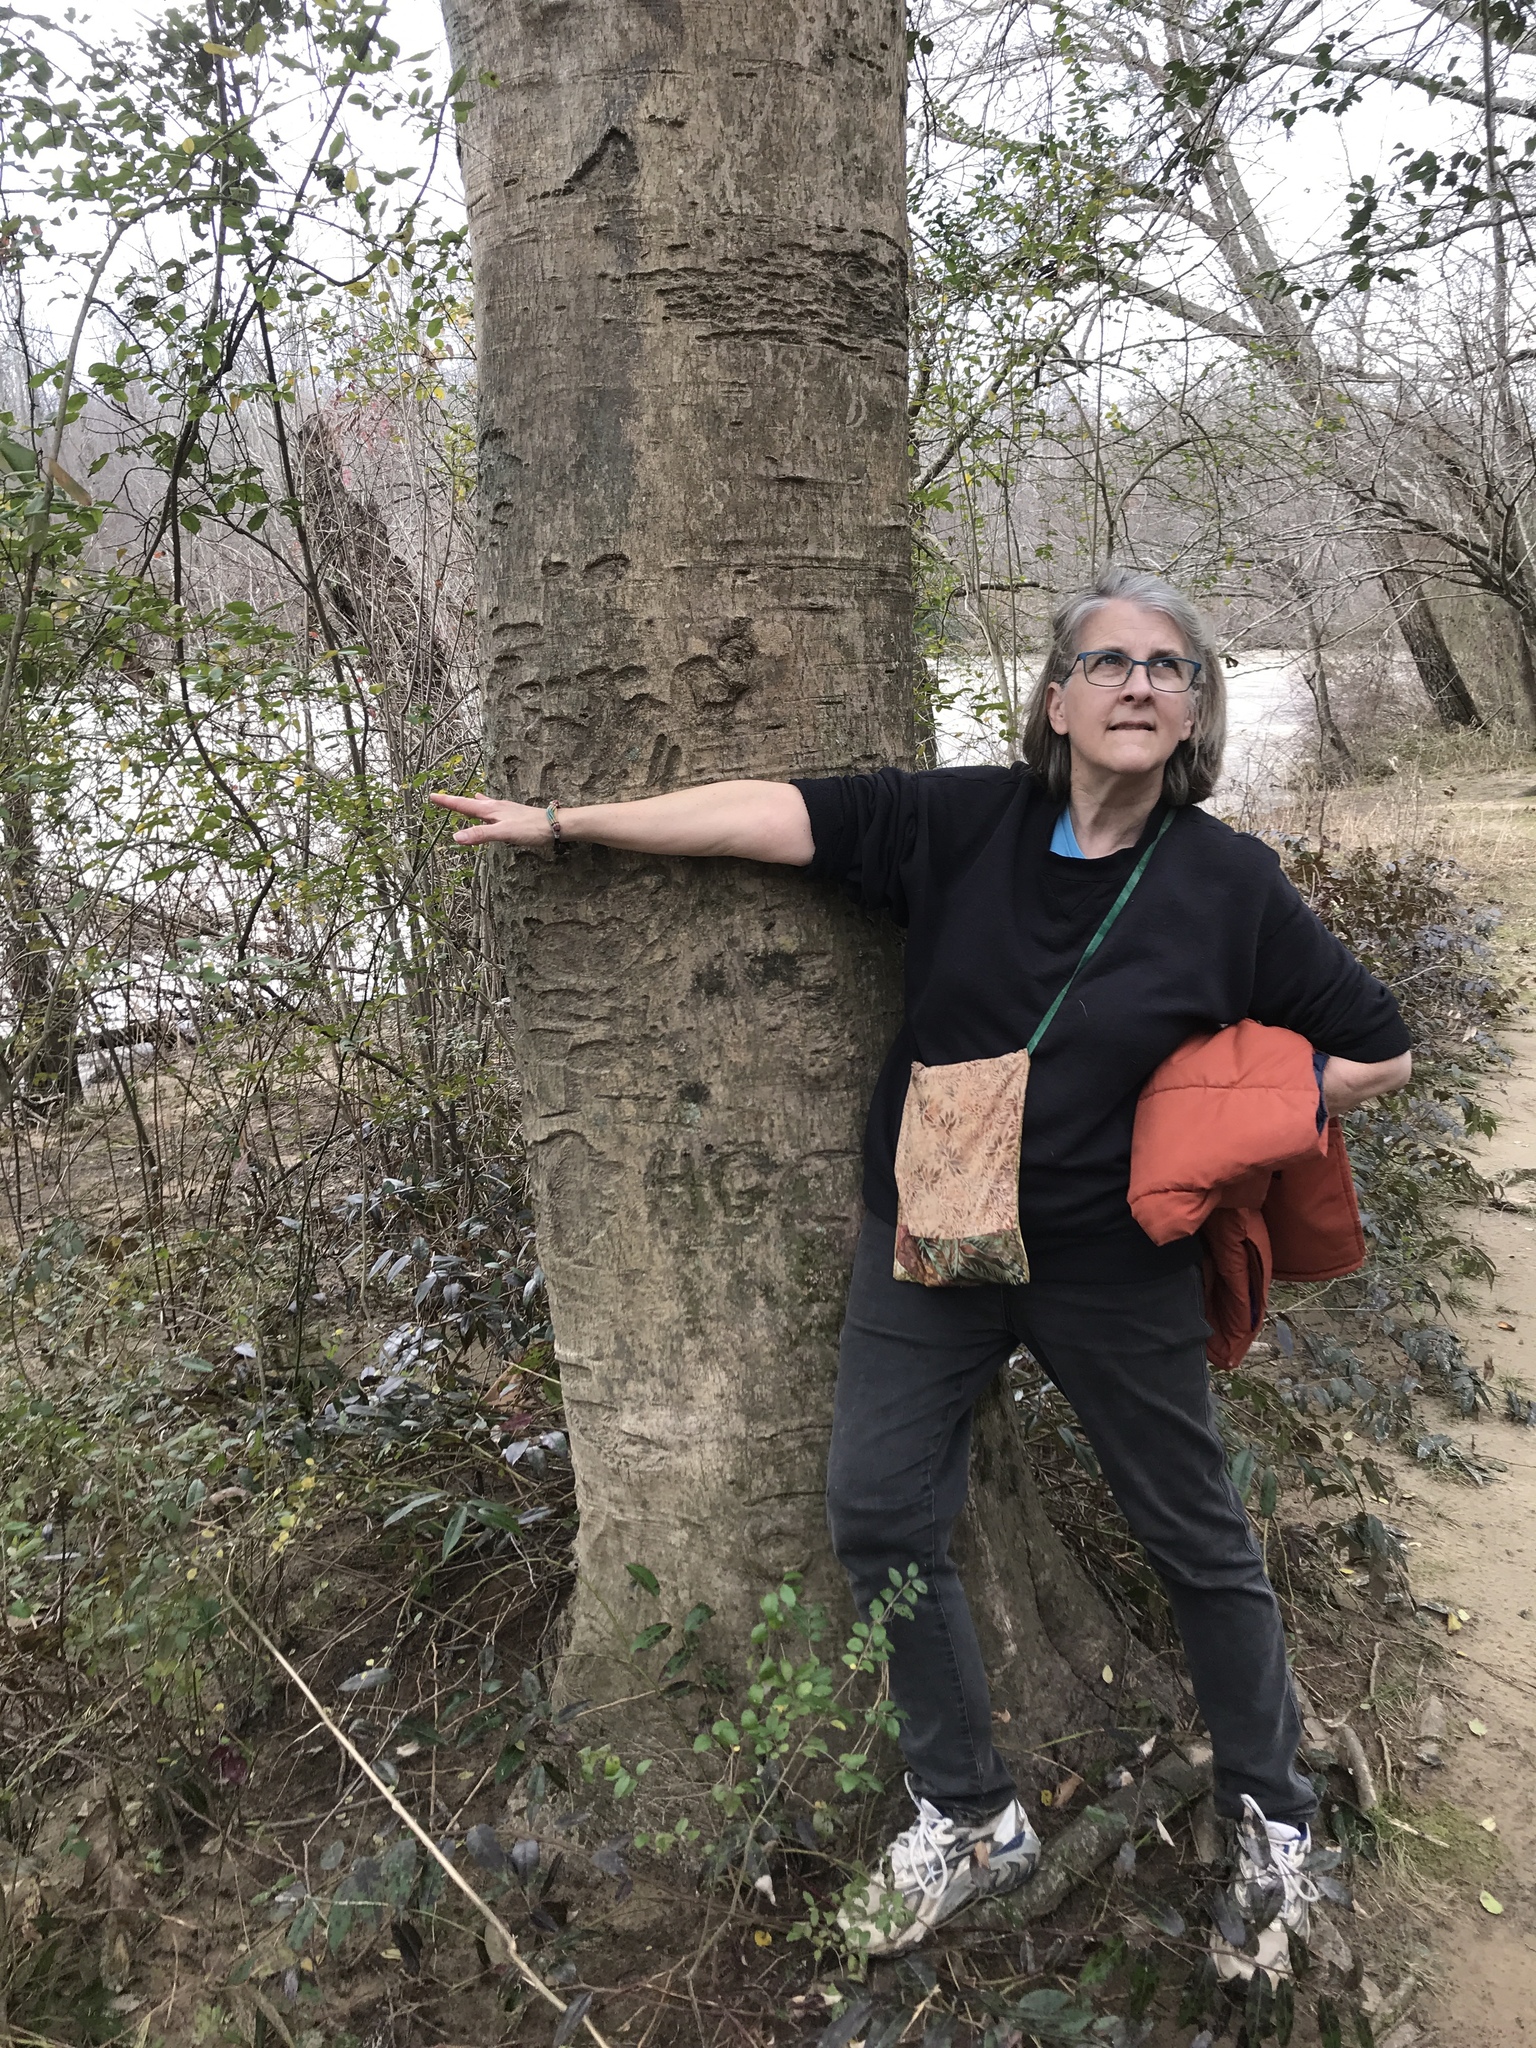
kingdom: Plantae
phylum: Tracheophyta
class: Magnoliopsida
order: Aquifoliales
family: Aquifoliaceae
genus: Ilex
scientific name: Ilex opaca
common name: American holly
